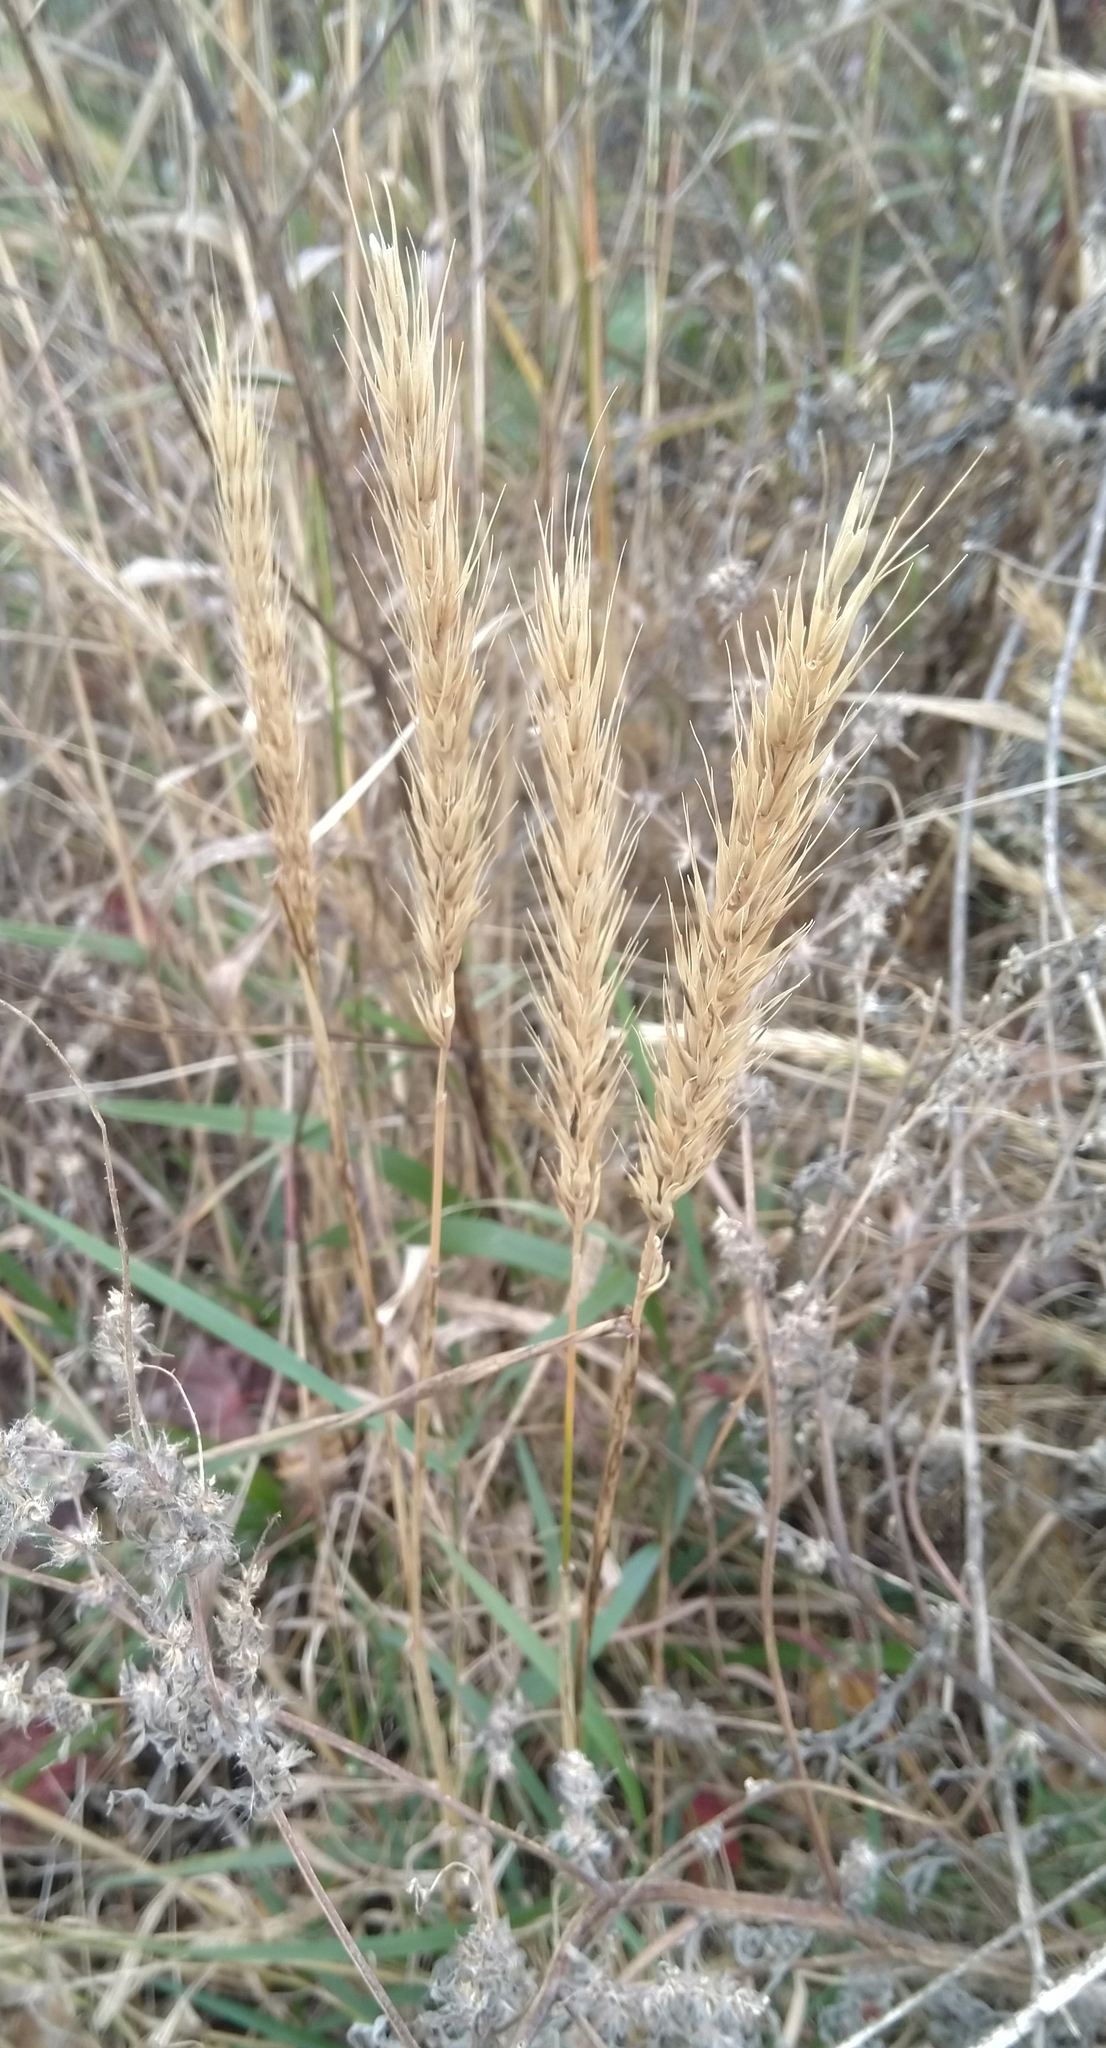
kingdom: Plantae
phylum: Tracheophyta
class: Liliopsida
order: Poales
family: Poaceae
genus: Elymus
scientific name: Elymus virginicus
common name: Common eastern wildrye
